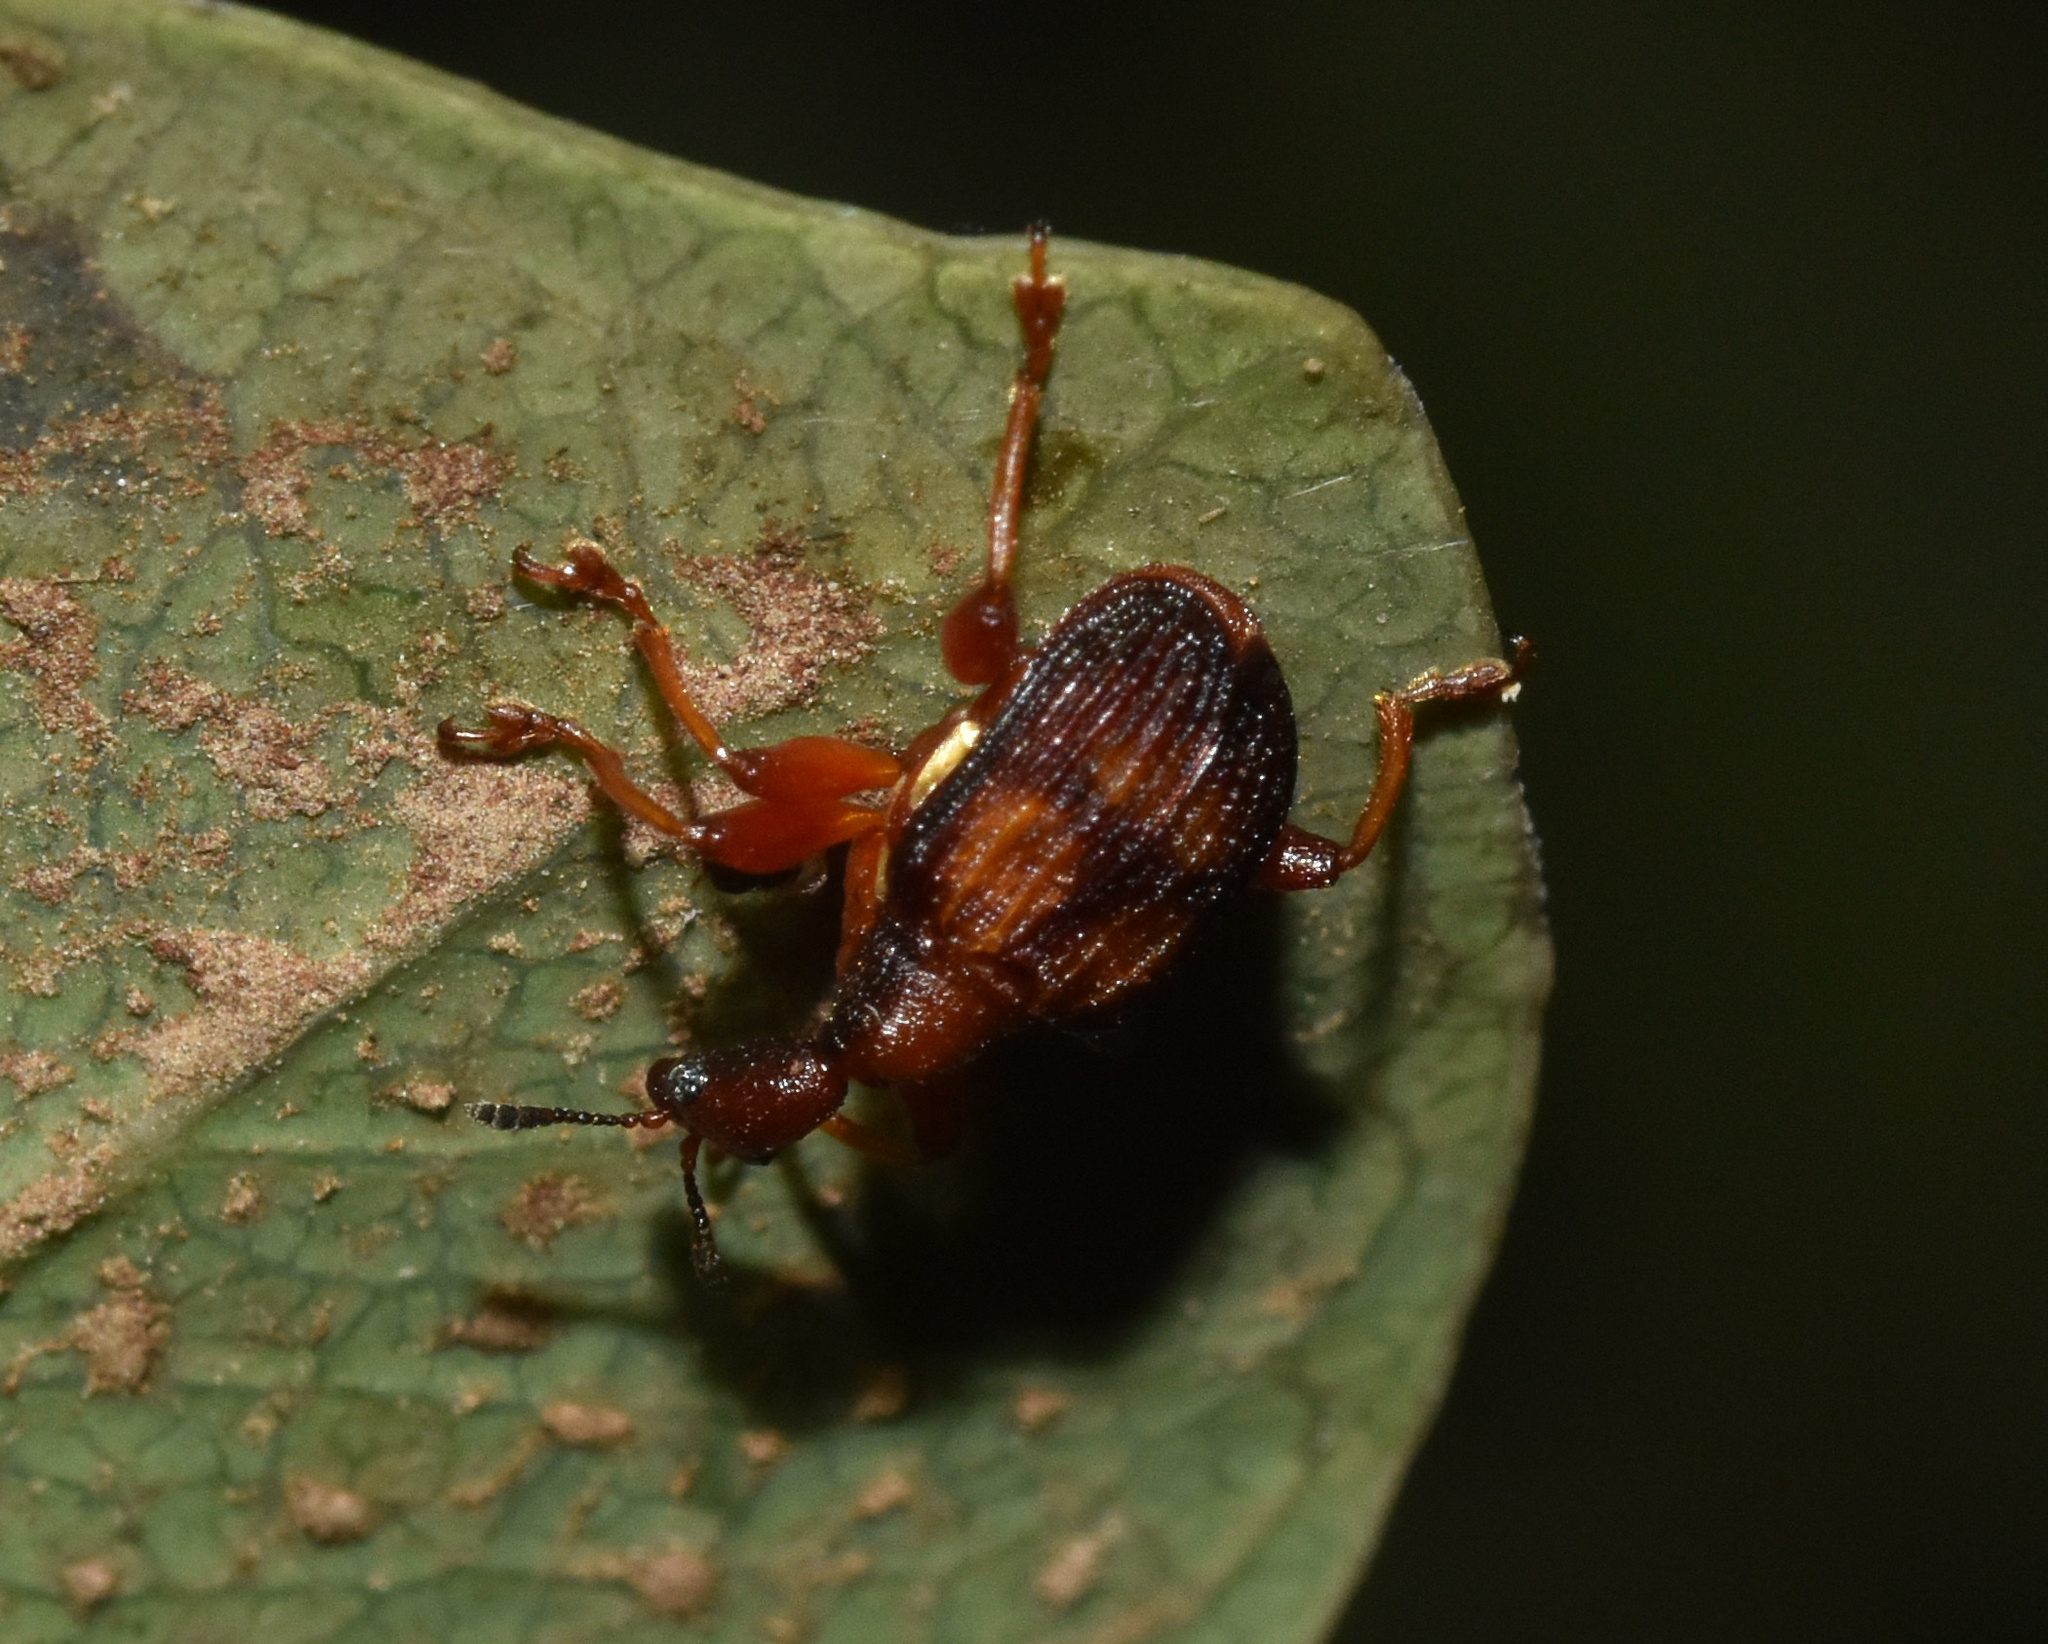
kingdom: Animalia
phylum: Arthropoda
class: Insecta
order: Coleoptera
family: Attelabidae
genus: Parapoderus
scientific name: Parapoderus submarginatus
